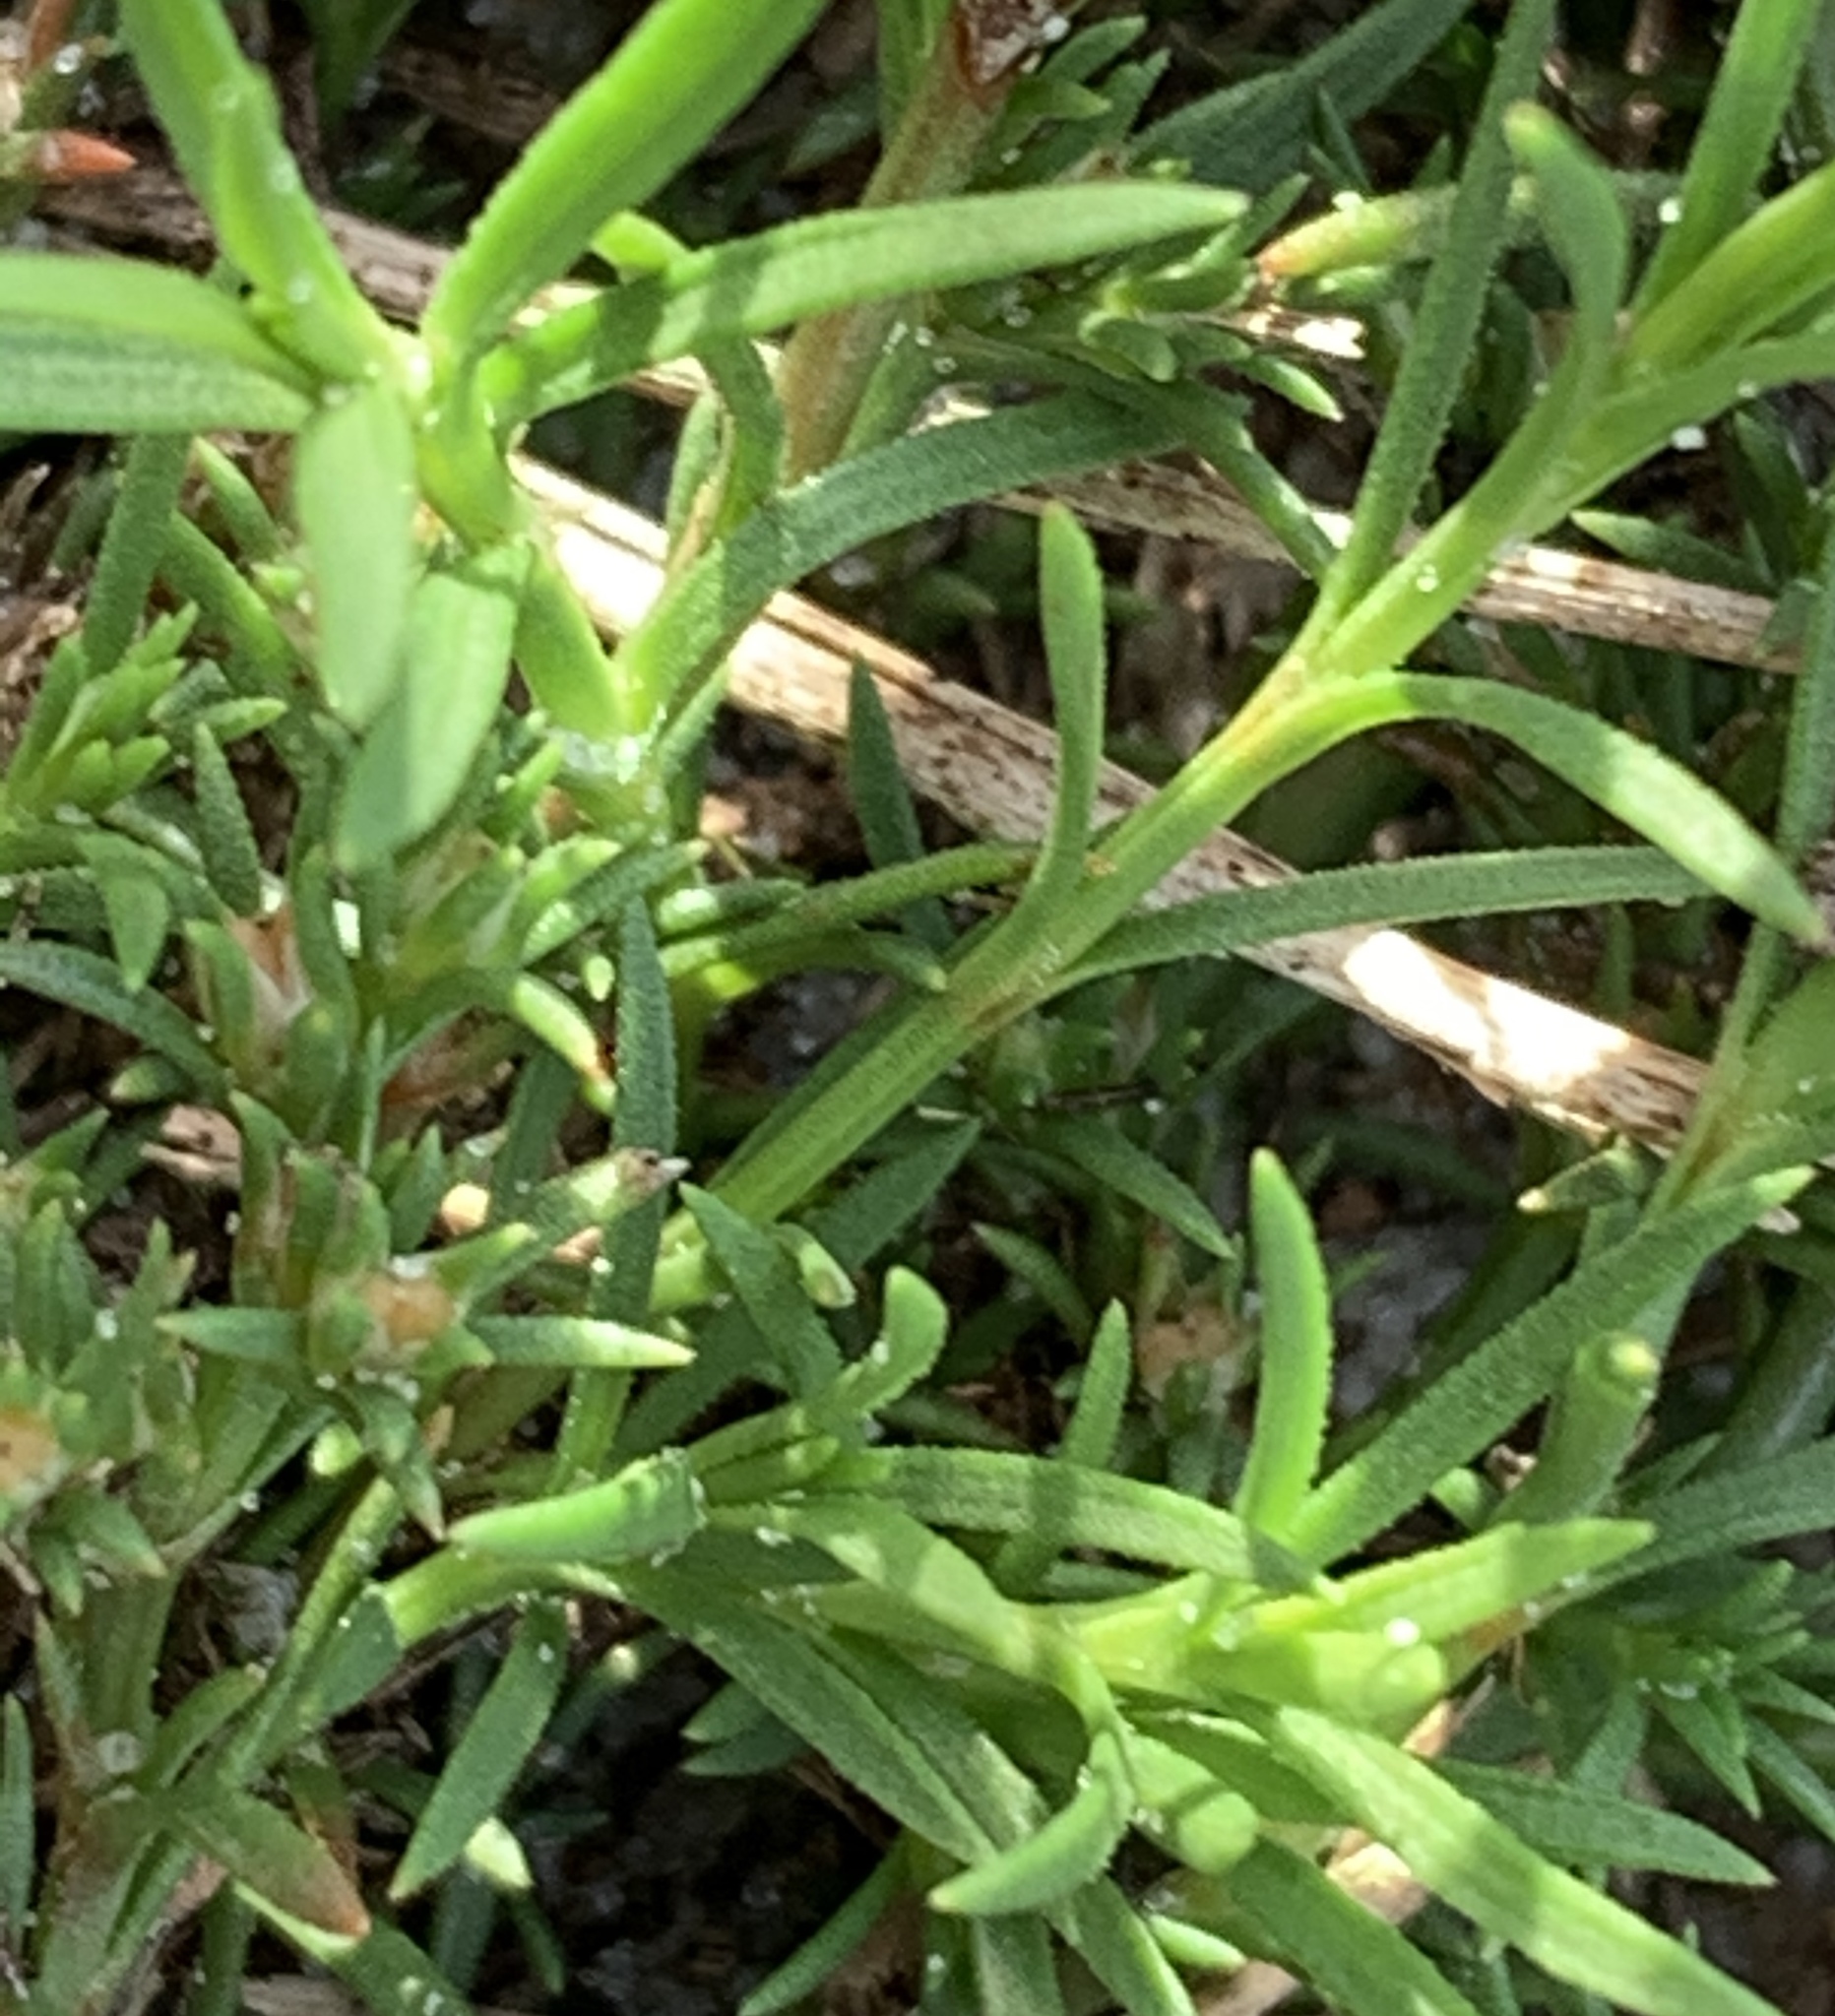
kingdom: Plantae
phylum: Tracheophyta
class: Magnoliopsida
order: Lamiales
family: Tetrachondraceae
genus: Polypremum
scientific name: Polypremum procumbens
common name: Juniper-leaf
